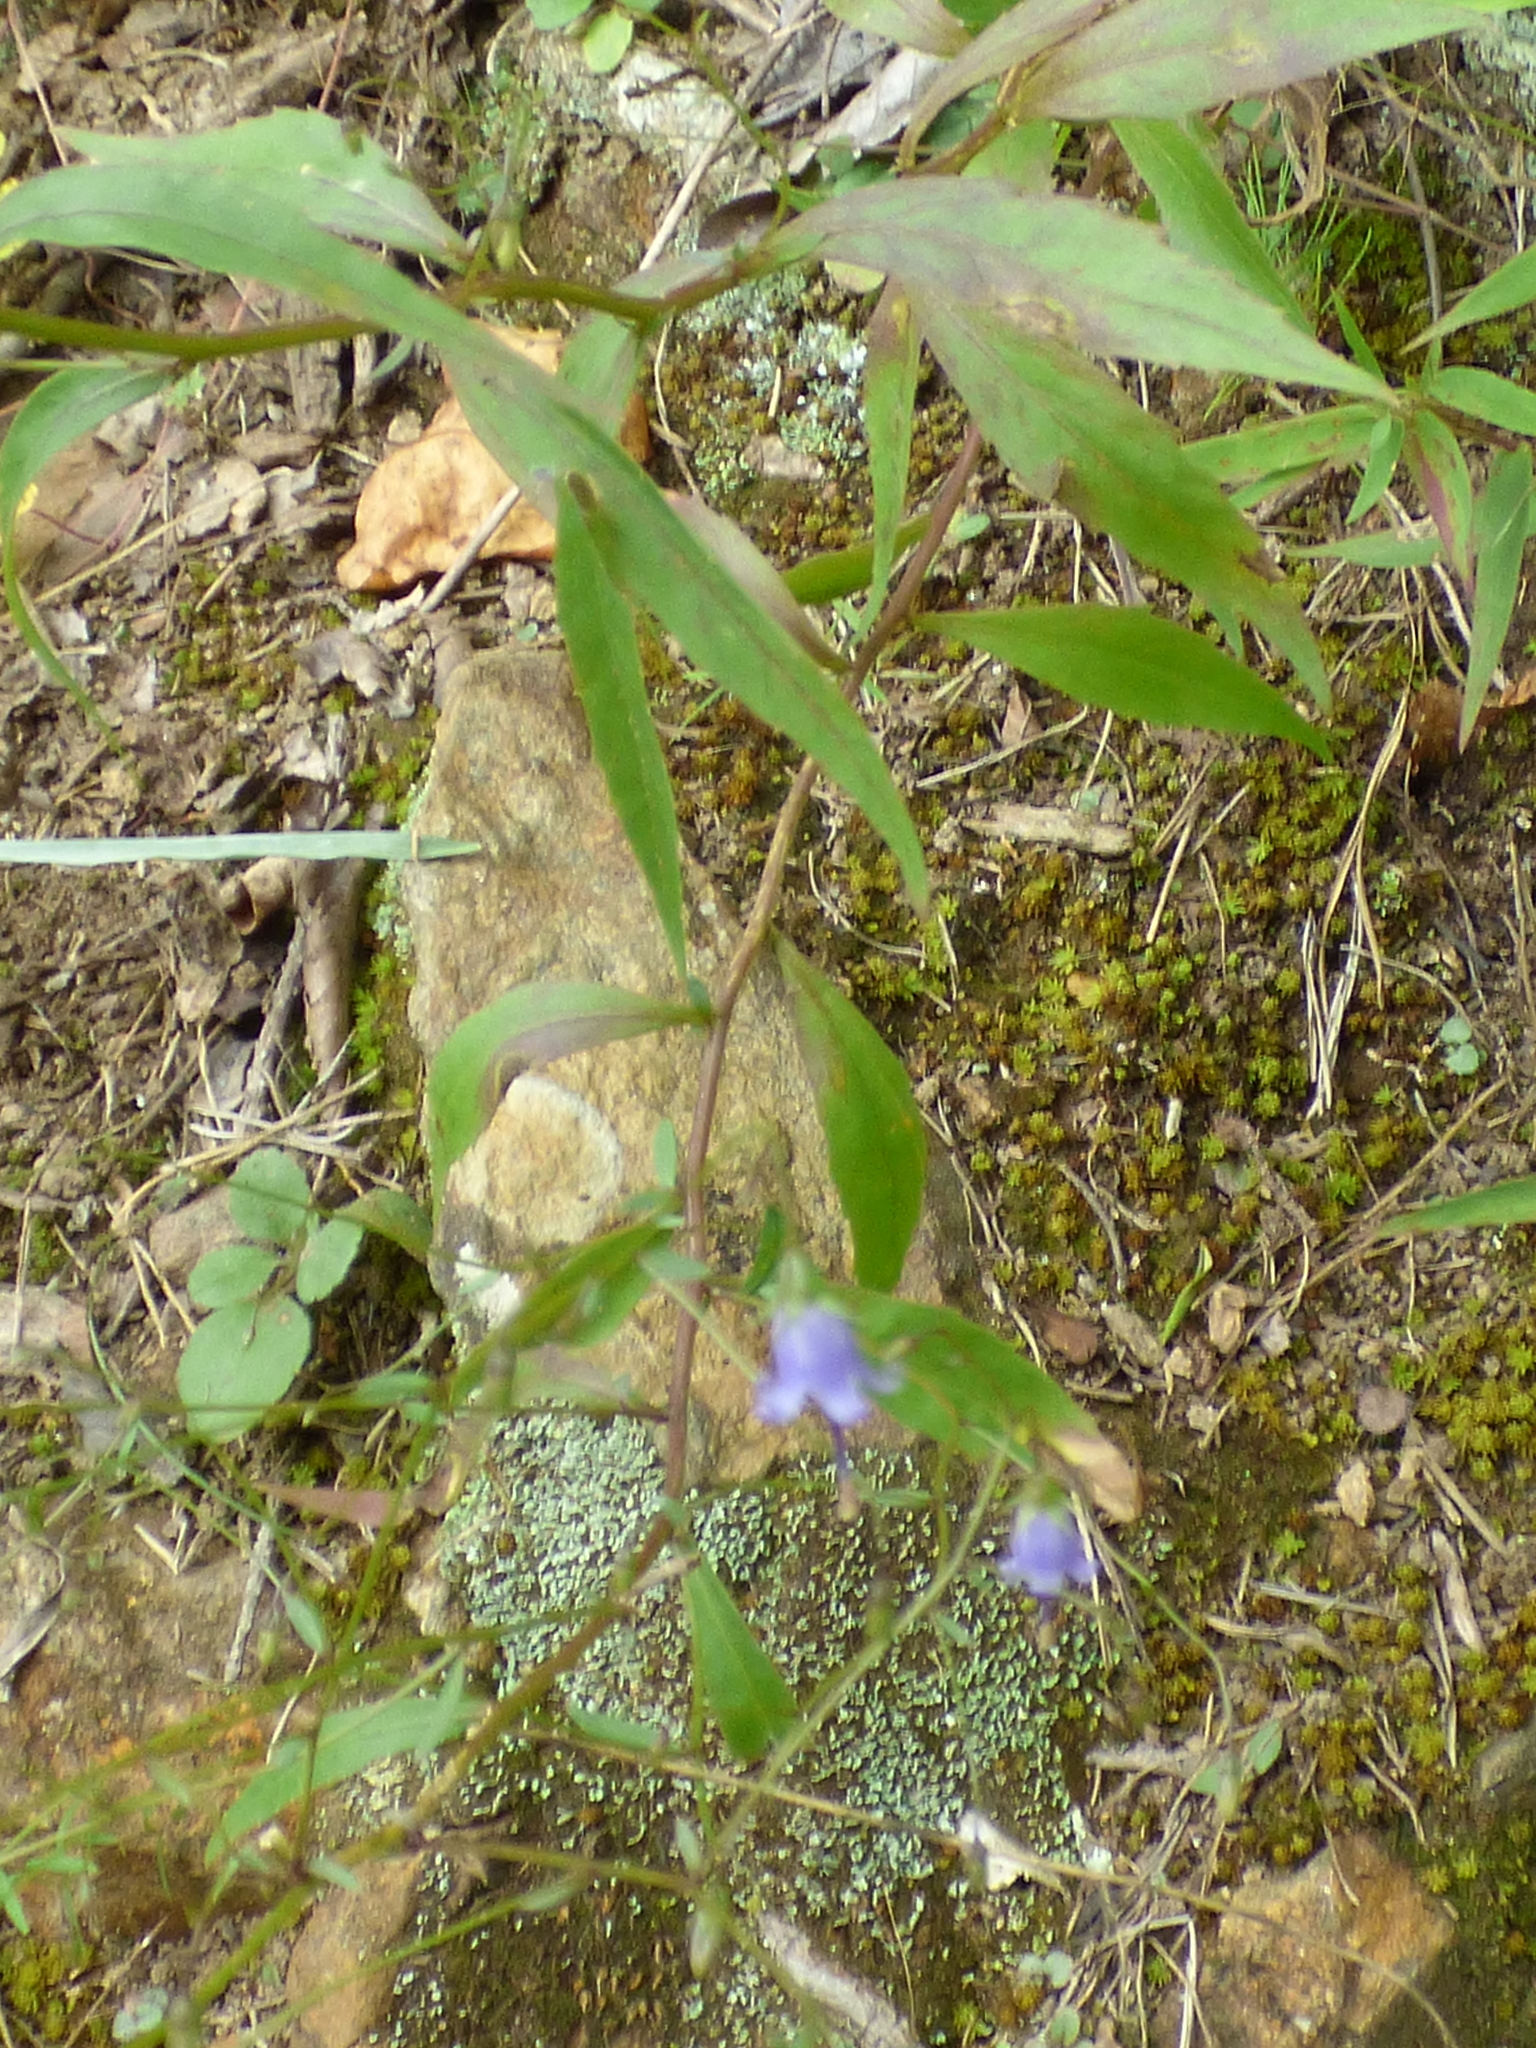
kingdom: Plantae
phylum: Tracheophyta
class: Magnoliopsida
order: Asterales
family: Campanulaceae
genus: Campanula
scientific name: Campanula divaricata
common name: Appalachian bellflower
